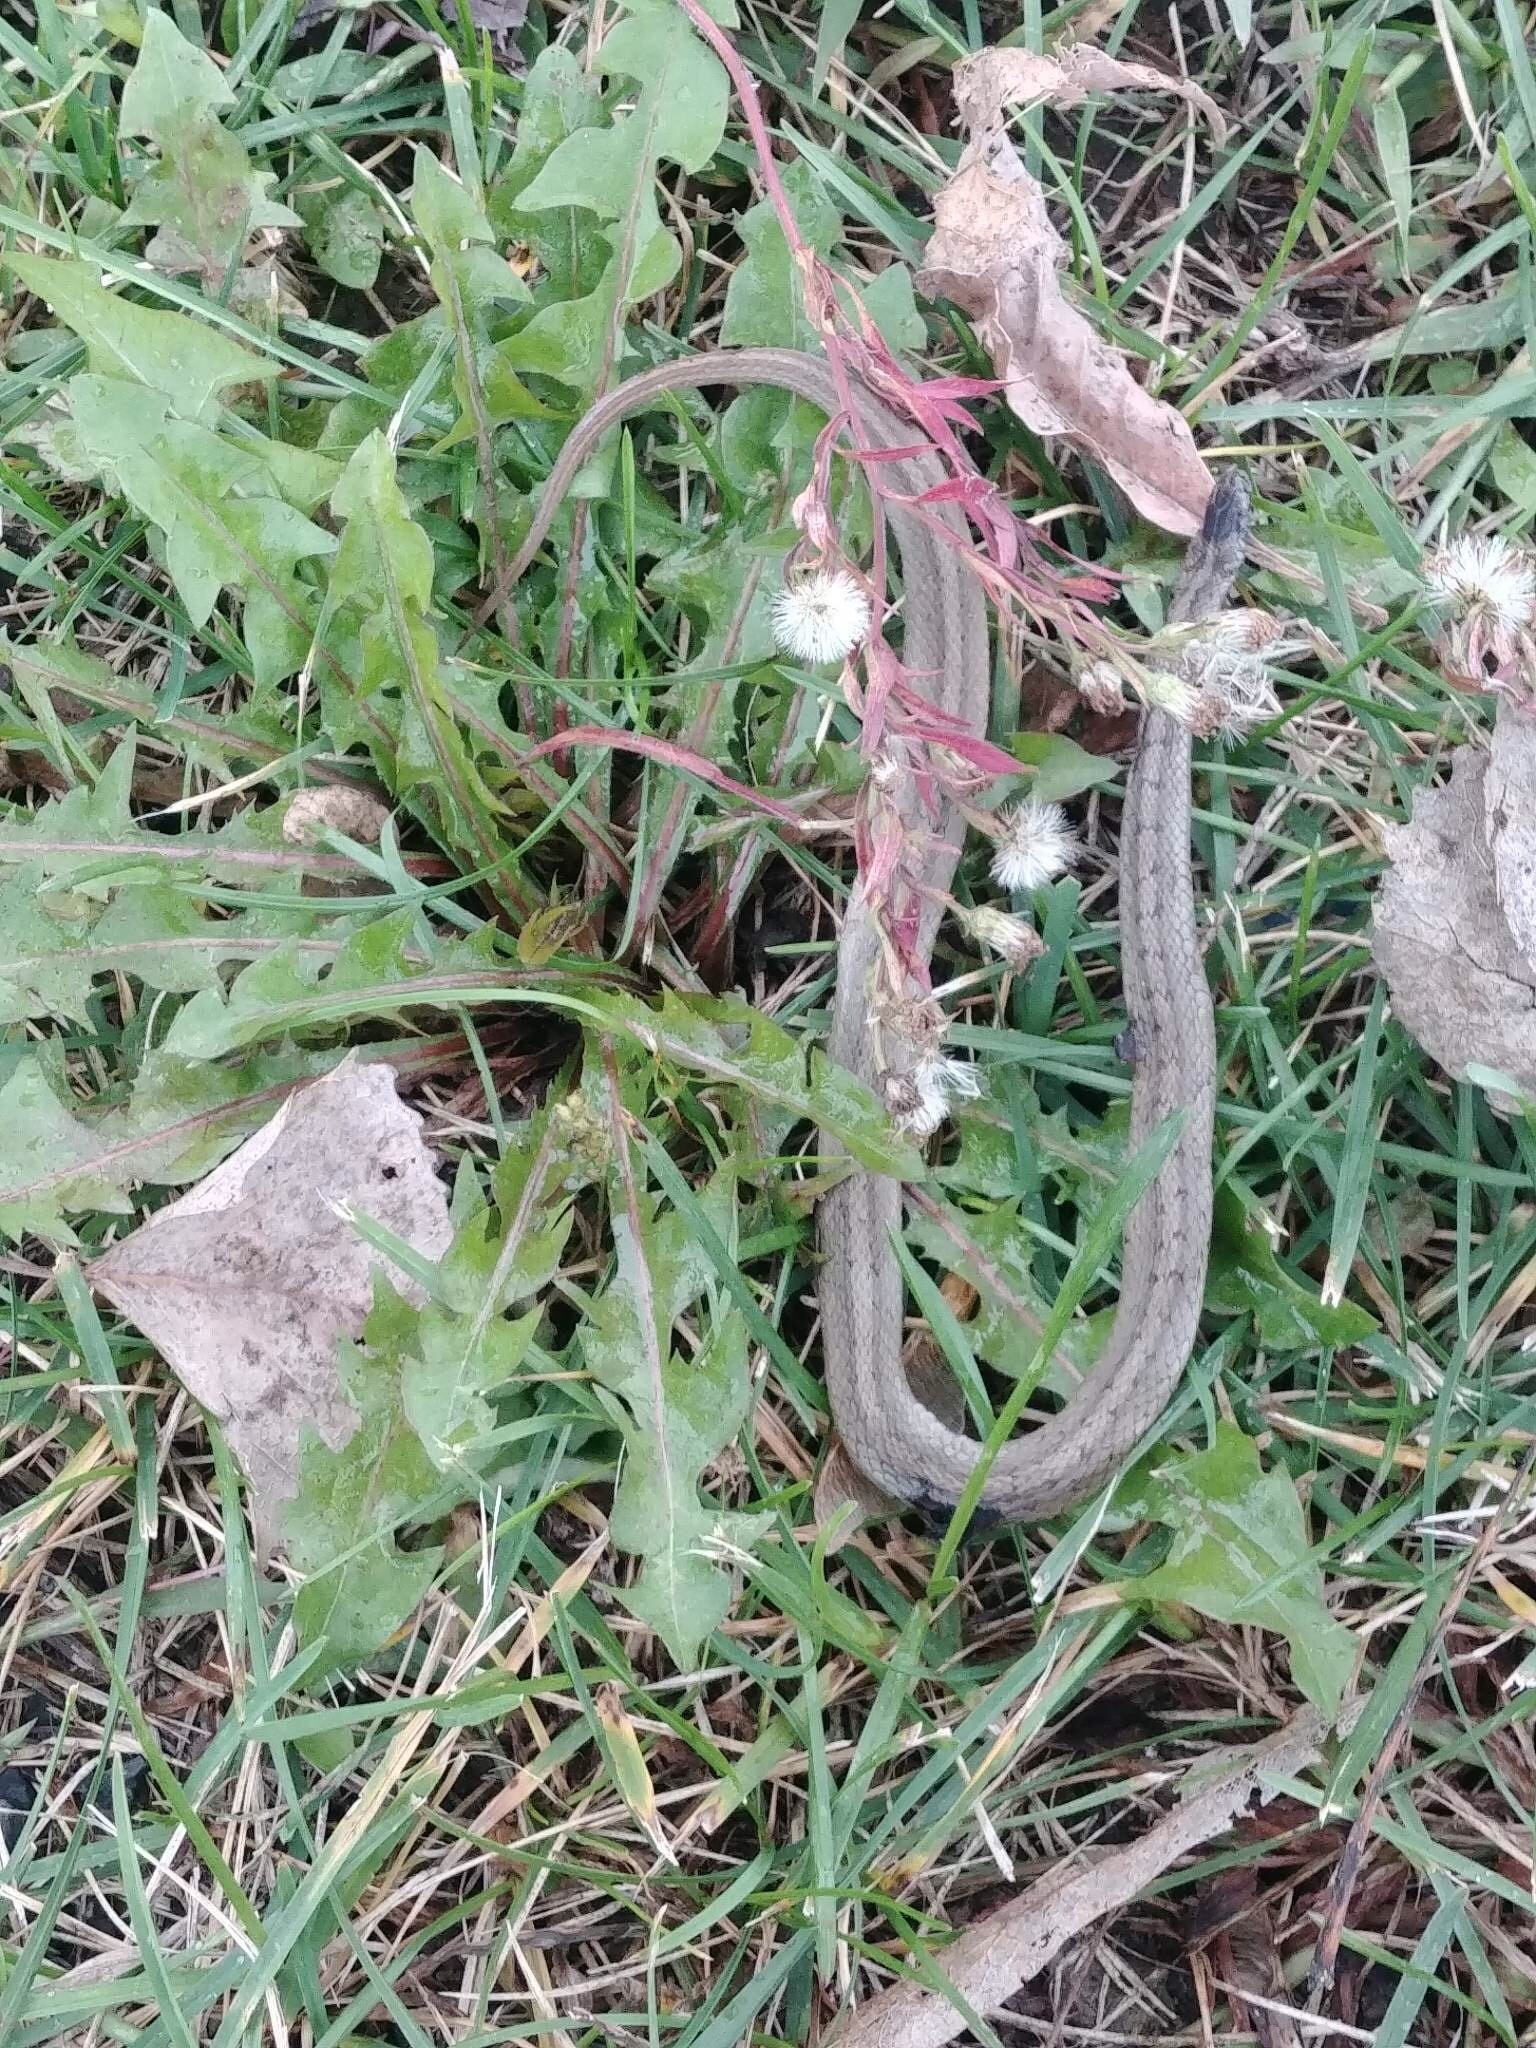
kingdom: Animalia
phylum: Chordata
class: Squamata
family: Colubridae
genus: Storeria
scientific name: Storeria dekayi
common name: (dekay’s) brown snake
